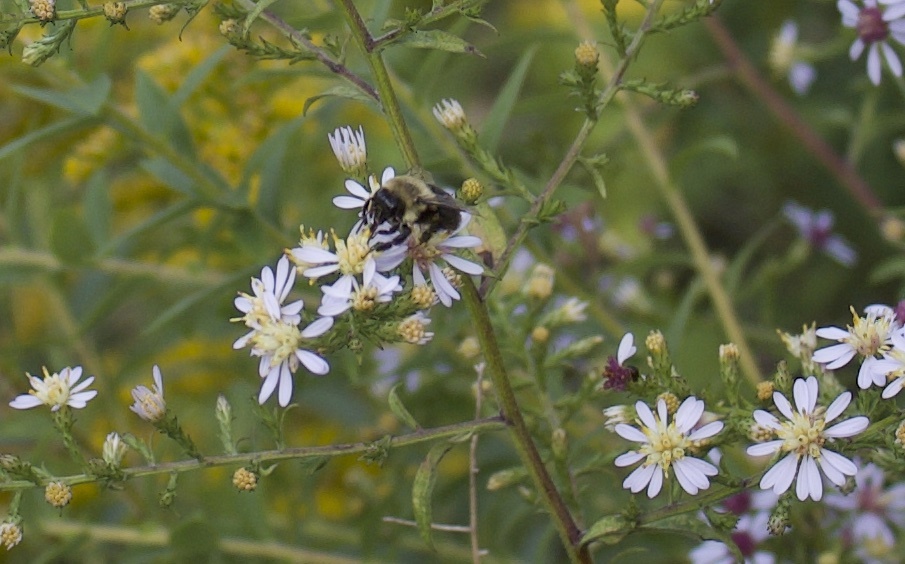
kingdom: Animalia
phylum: Arthropoda
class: Insecta
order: Hymenoptera
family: Apidae
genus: Bombus
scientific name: Bombus impatiens
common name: Common eastern bumble bee
